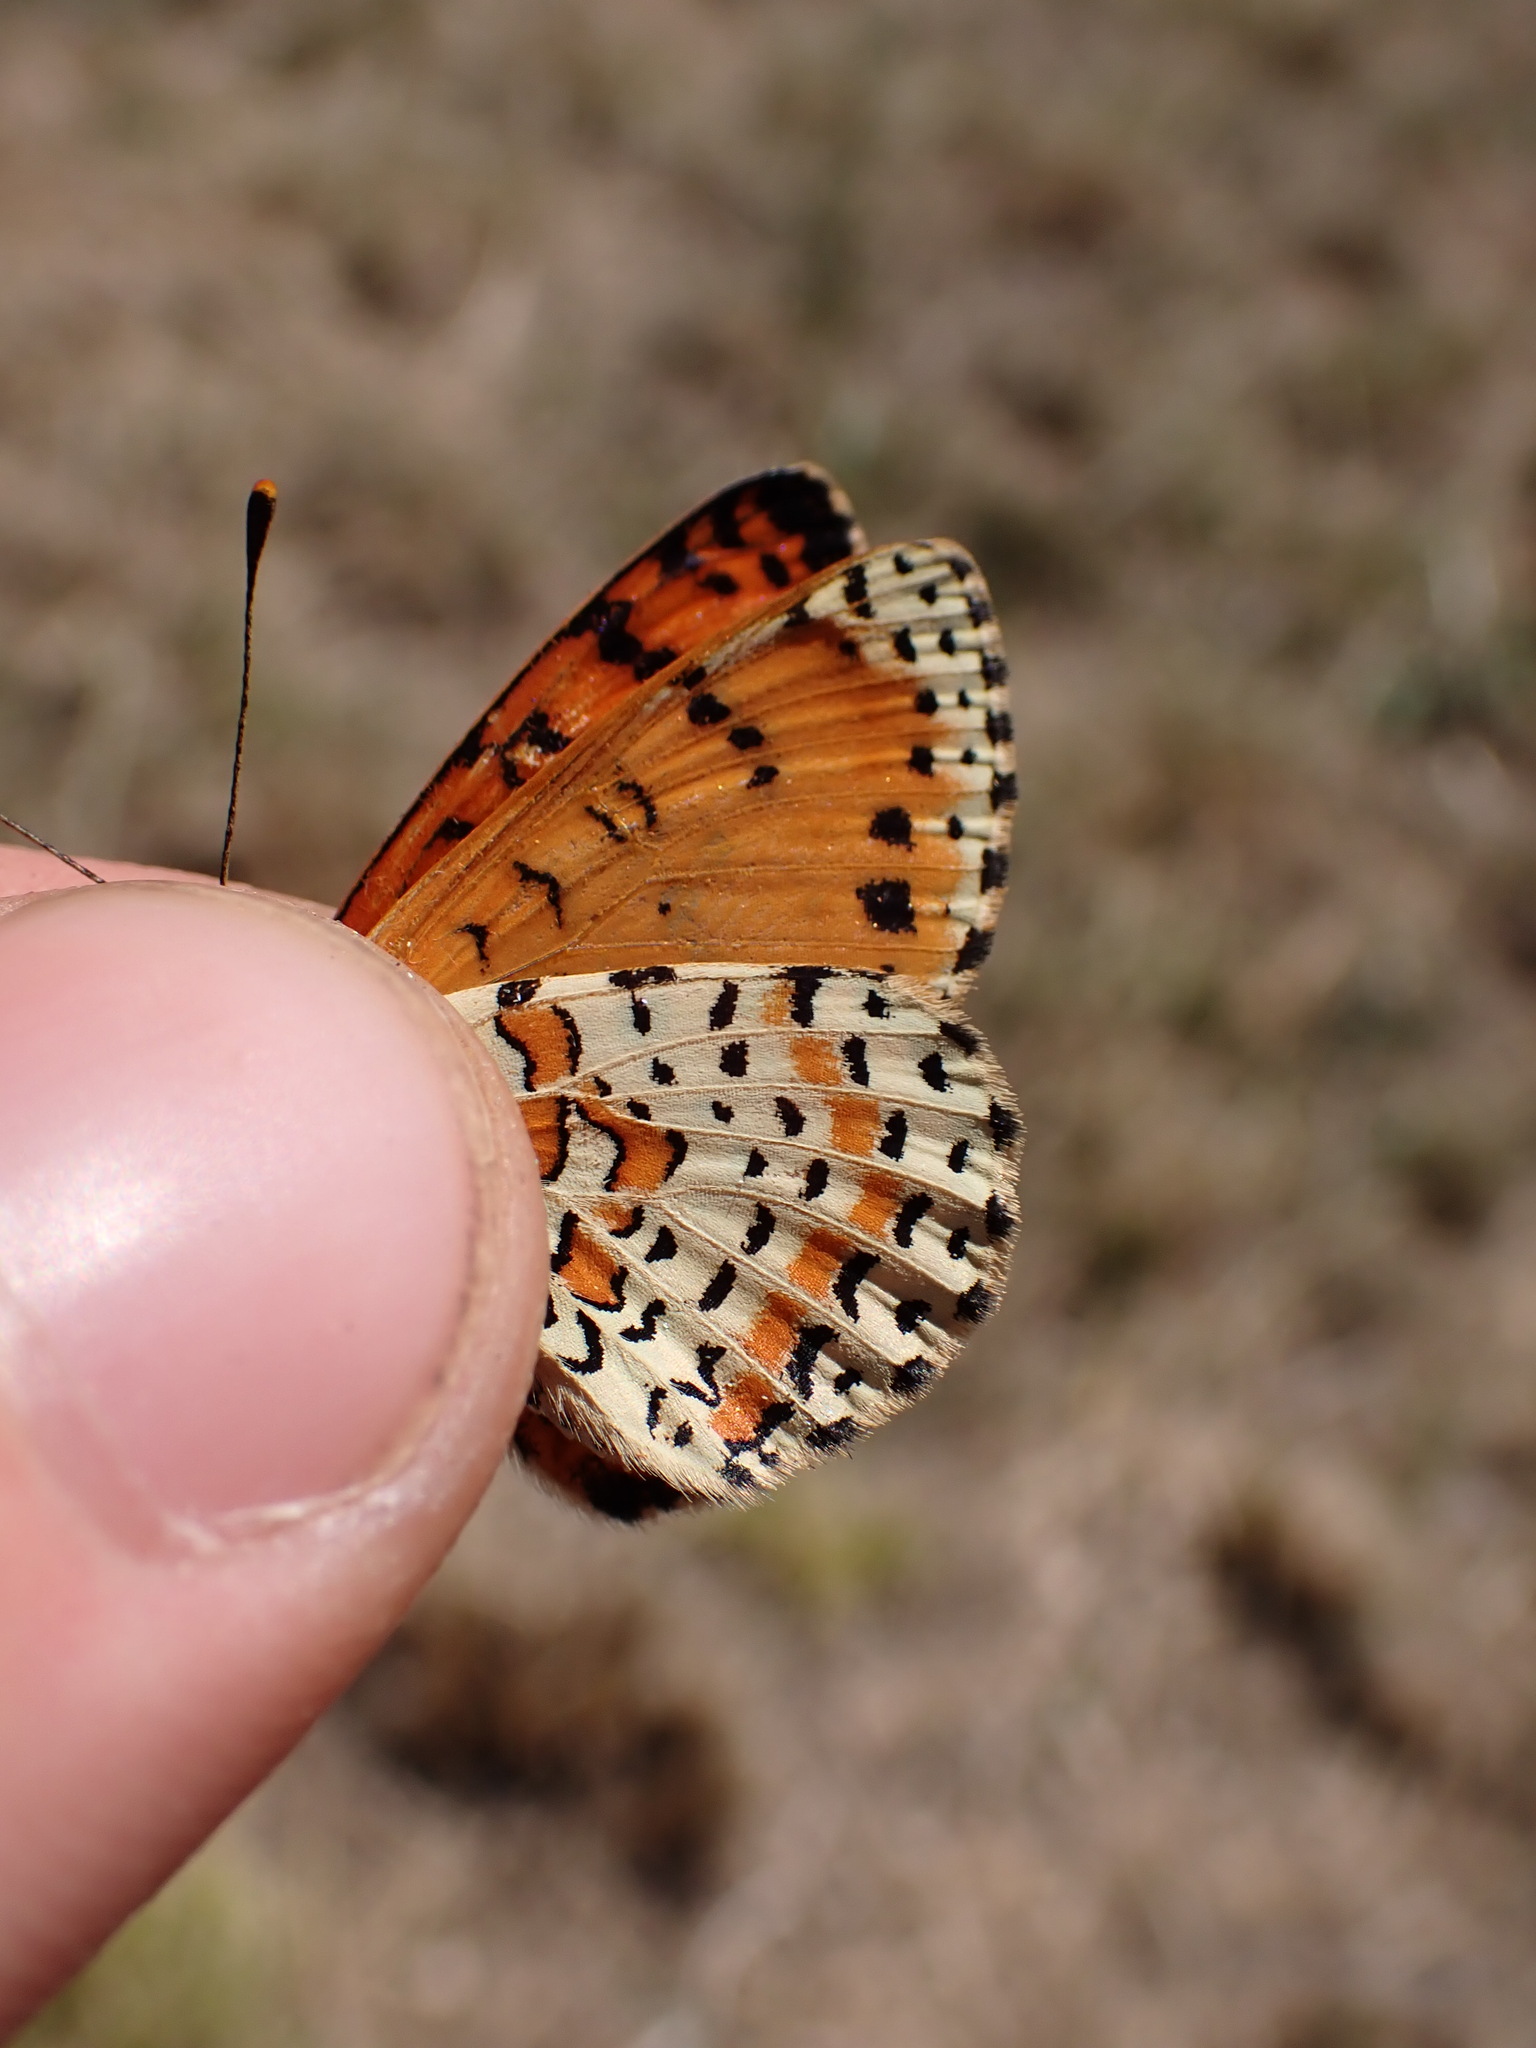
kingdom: Animalia
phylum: Arthropoda
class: Insecta
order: Lepidoptera
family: Nymphalidae
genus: Melitaea
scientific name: Melitaea didyma
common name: Spotted fritillary
